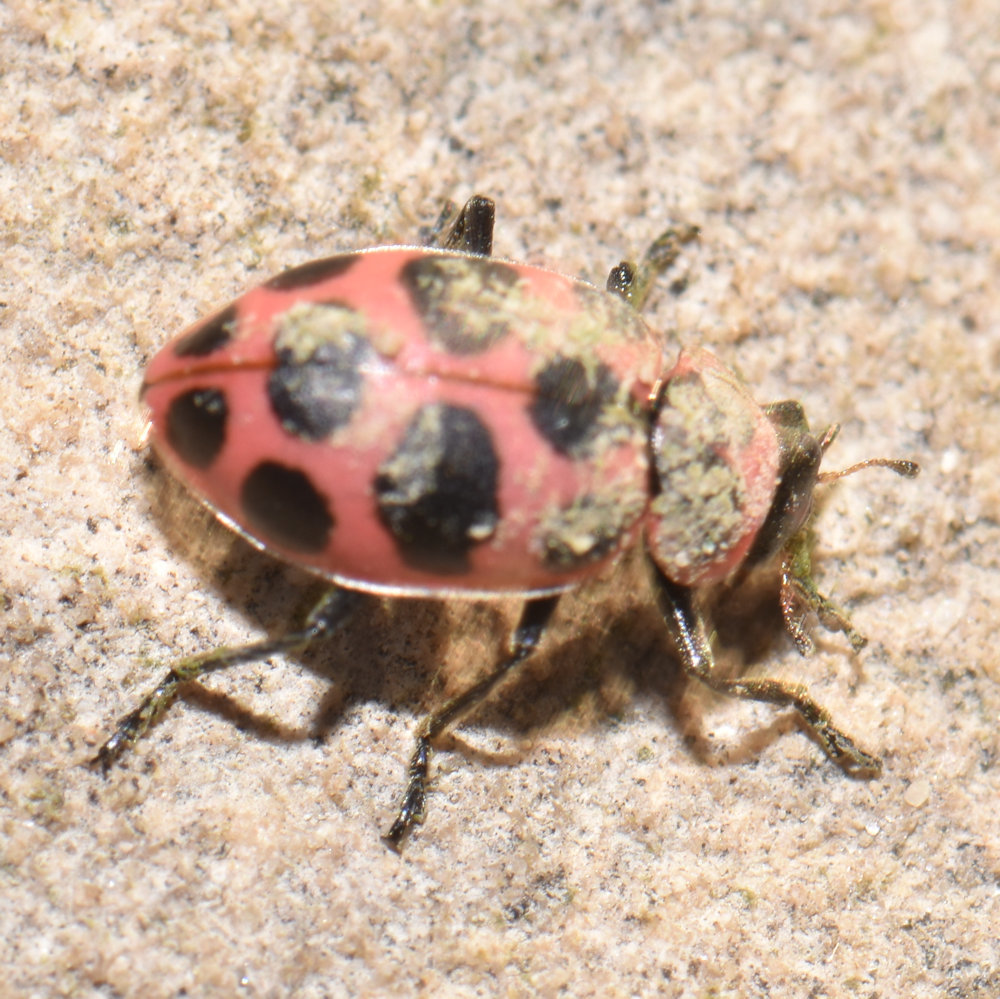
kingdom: Animalia
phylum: Arthropoda
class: Insecta
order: Coleoptera
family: Coccinellidae
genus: Coleomegilla
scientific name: Coleomegilla maculata
